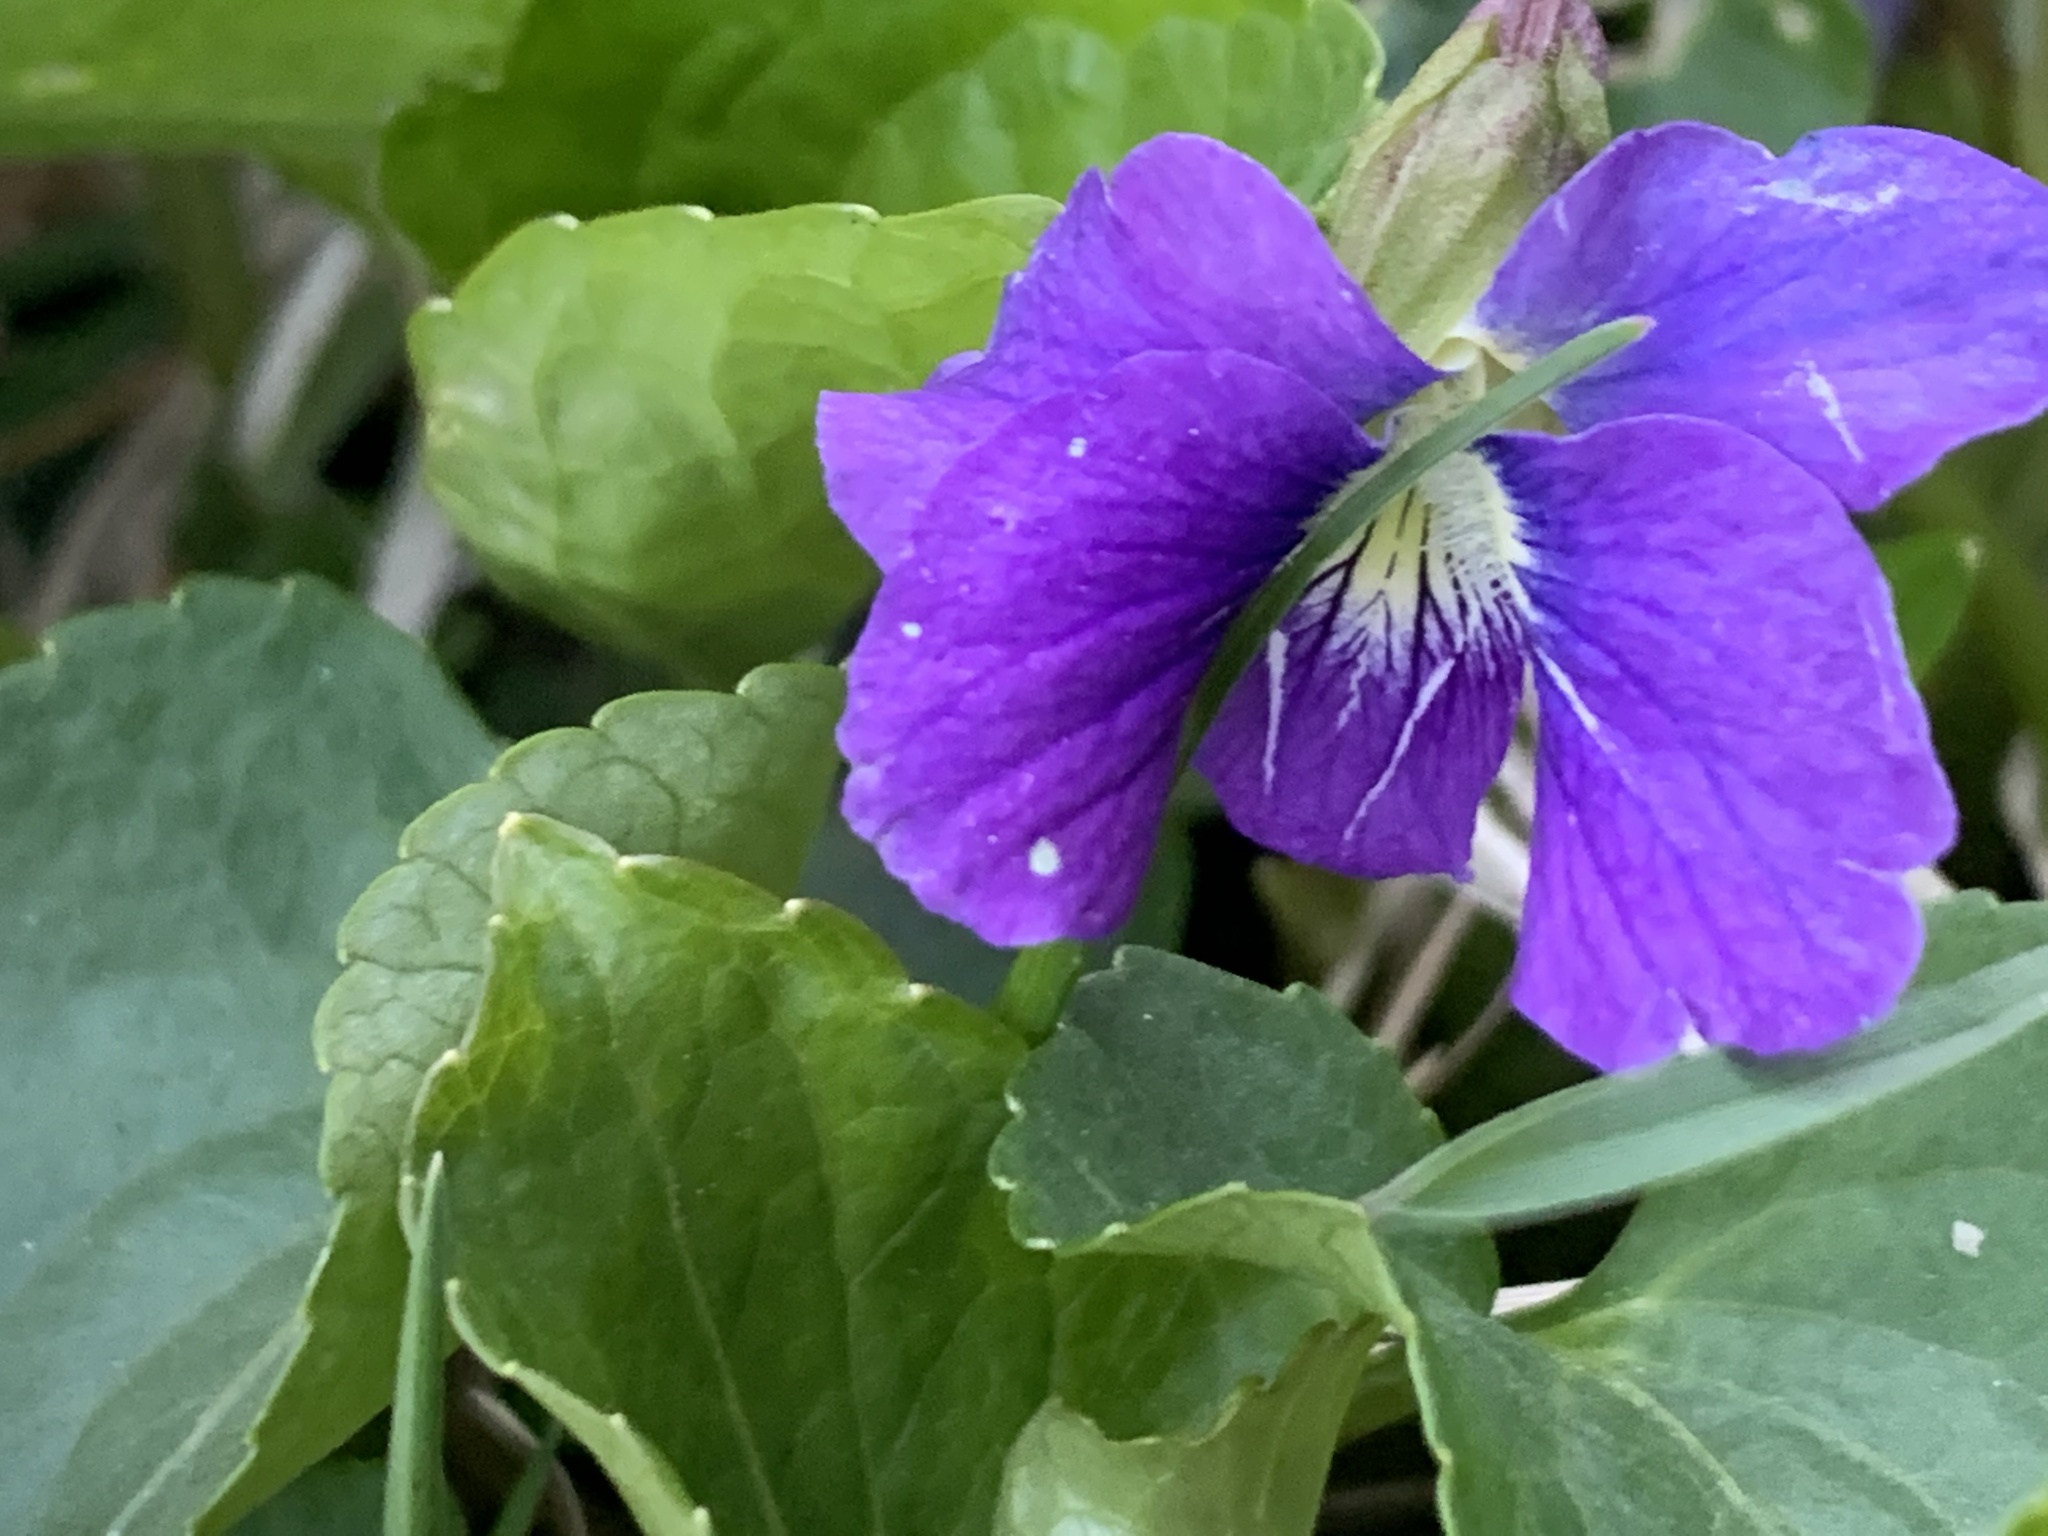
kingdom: Plantae
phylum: Tracheophyta
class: Magnoliopsida
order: Malpighiales
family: Violaceae
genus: Viola
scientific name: Viola sororia
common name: Dooryard violet
